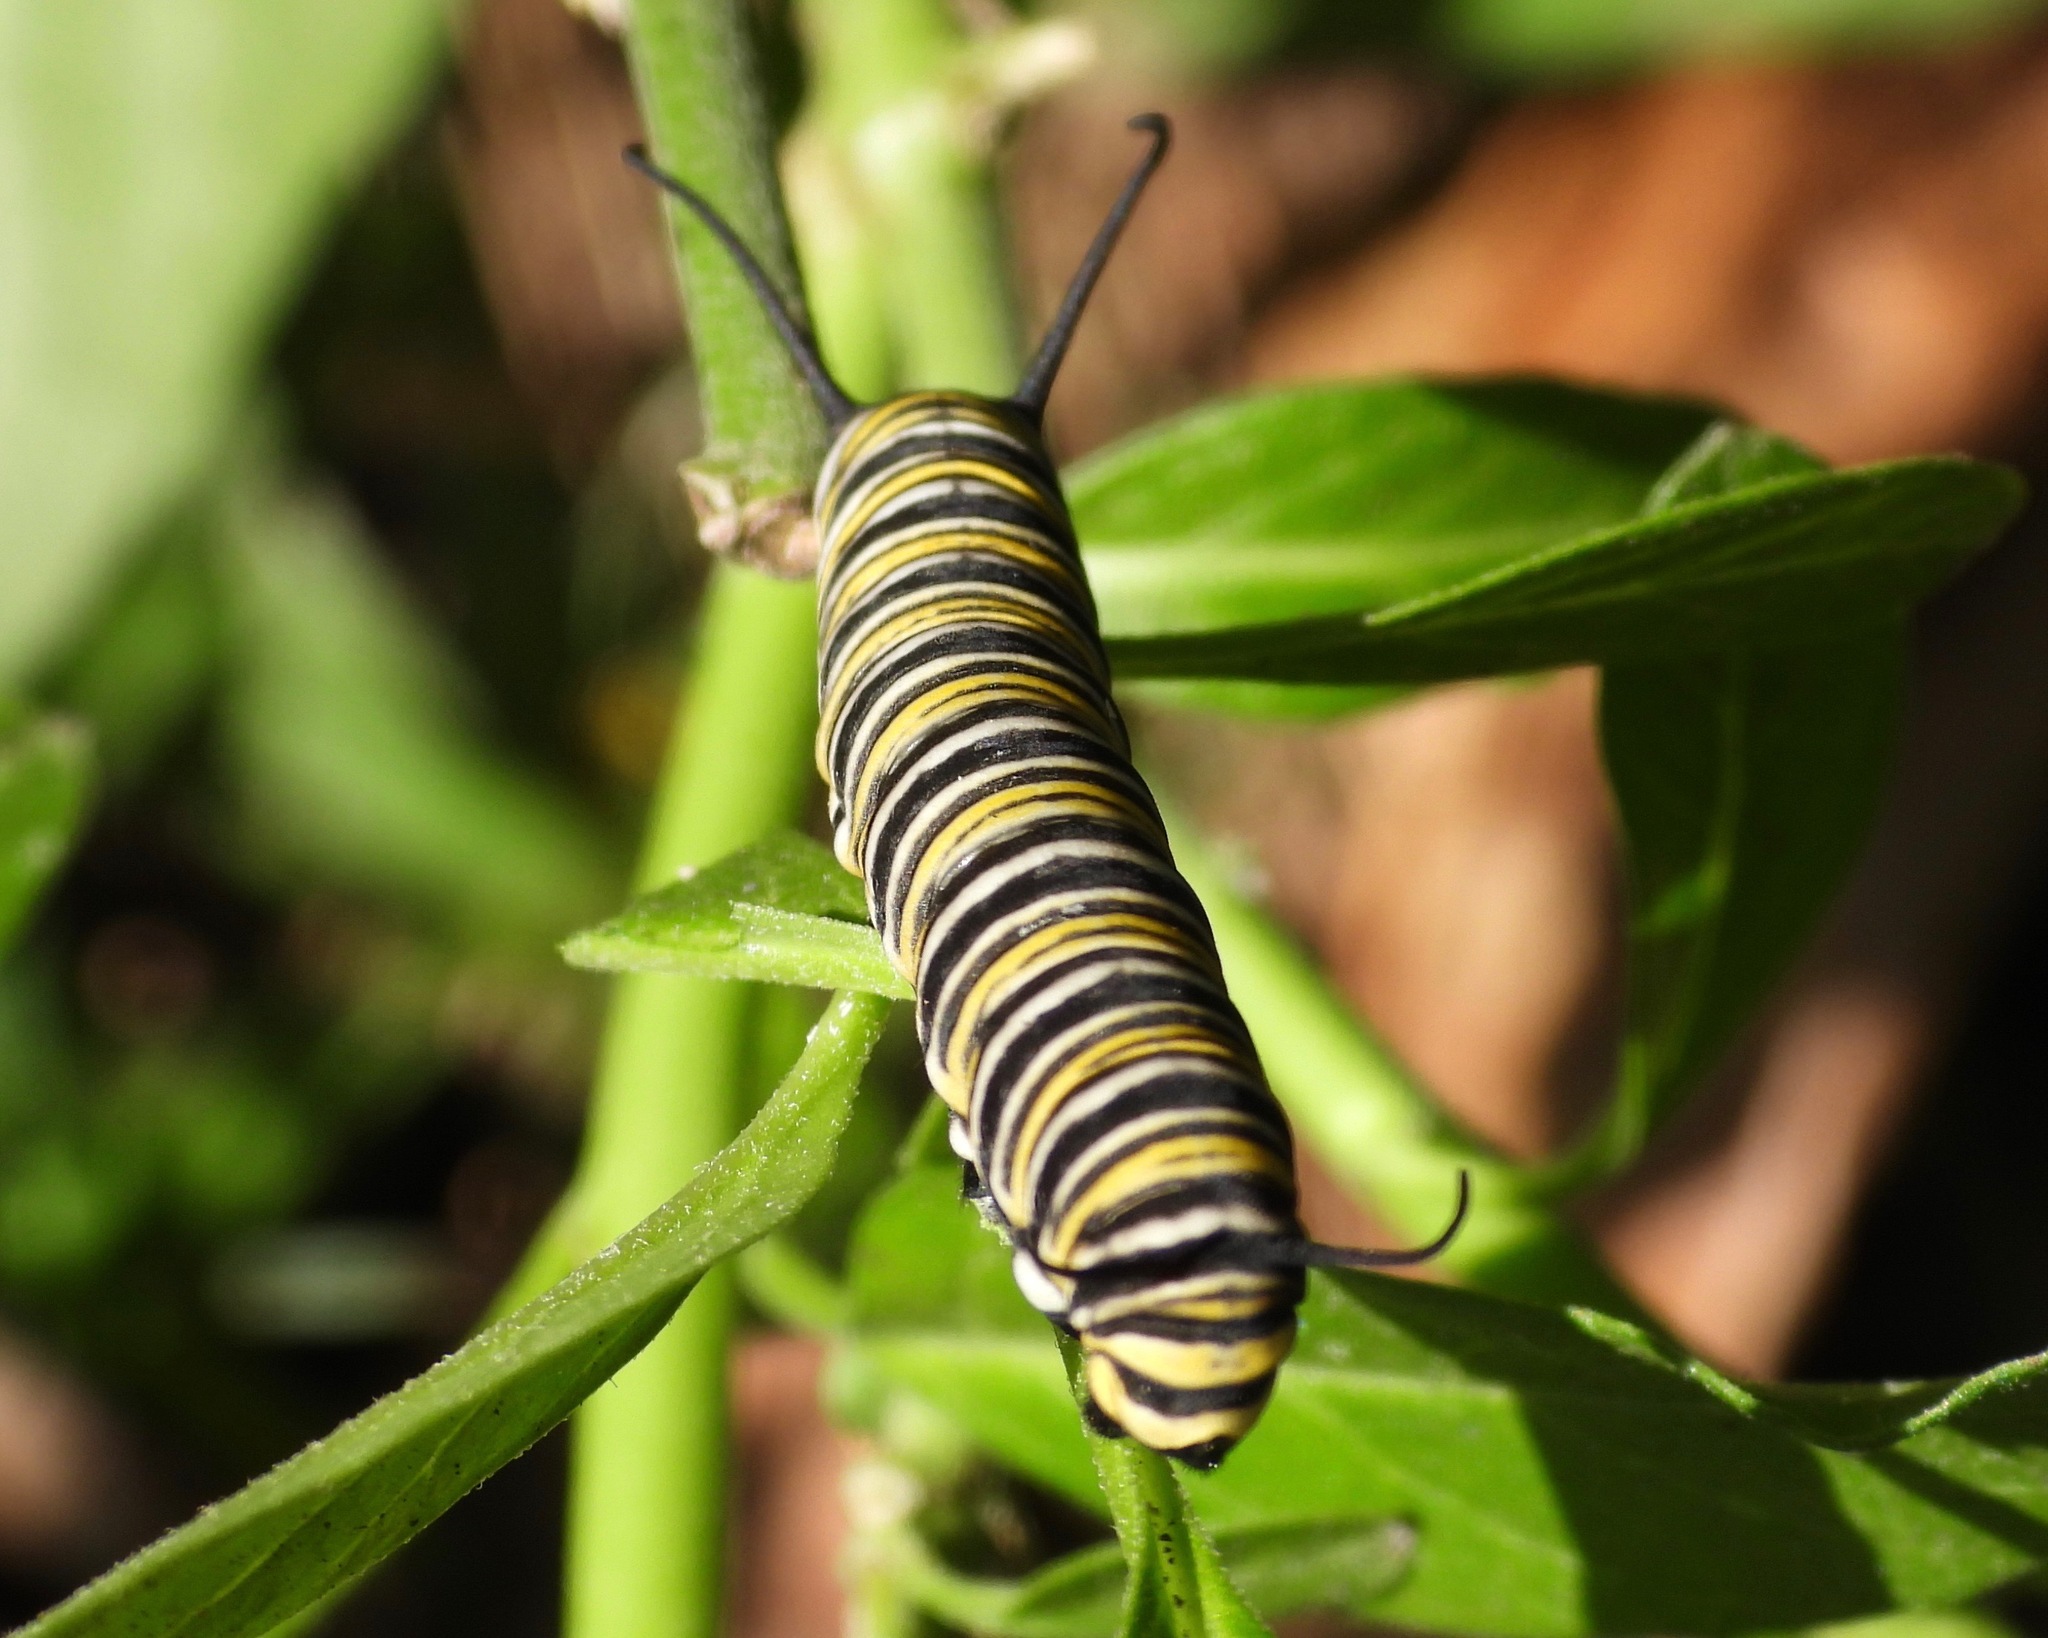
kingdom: Animalia
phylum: Arthropoda
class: Insecta
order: Lepidoptera
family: Nymphalidae
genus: Danaus
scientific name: Danaus plexippus
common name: Monarch
